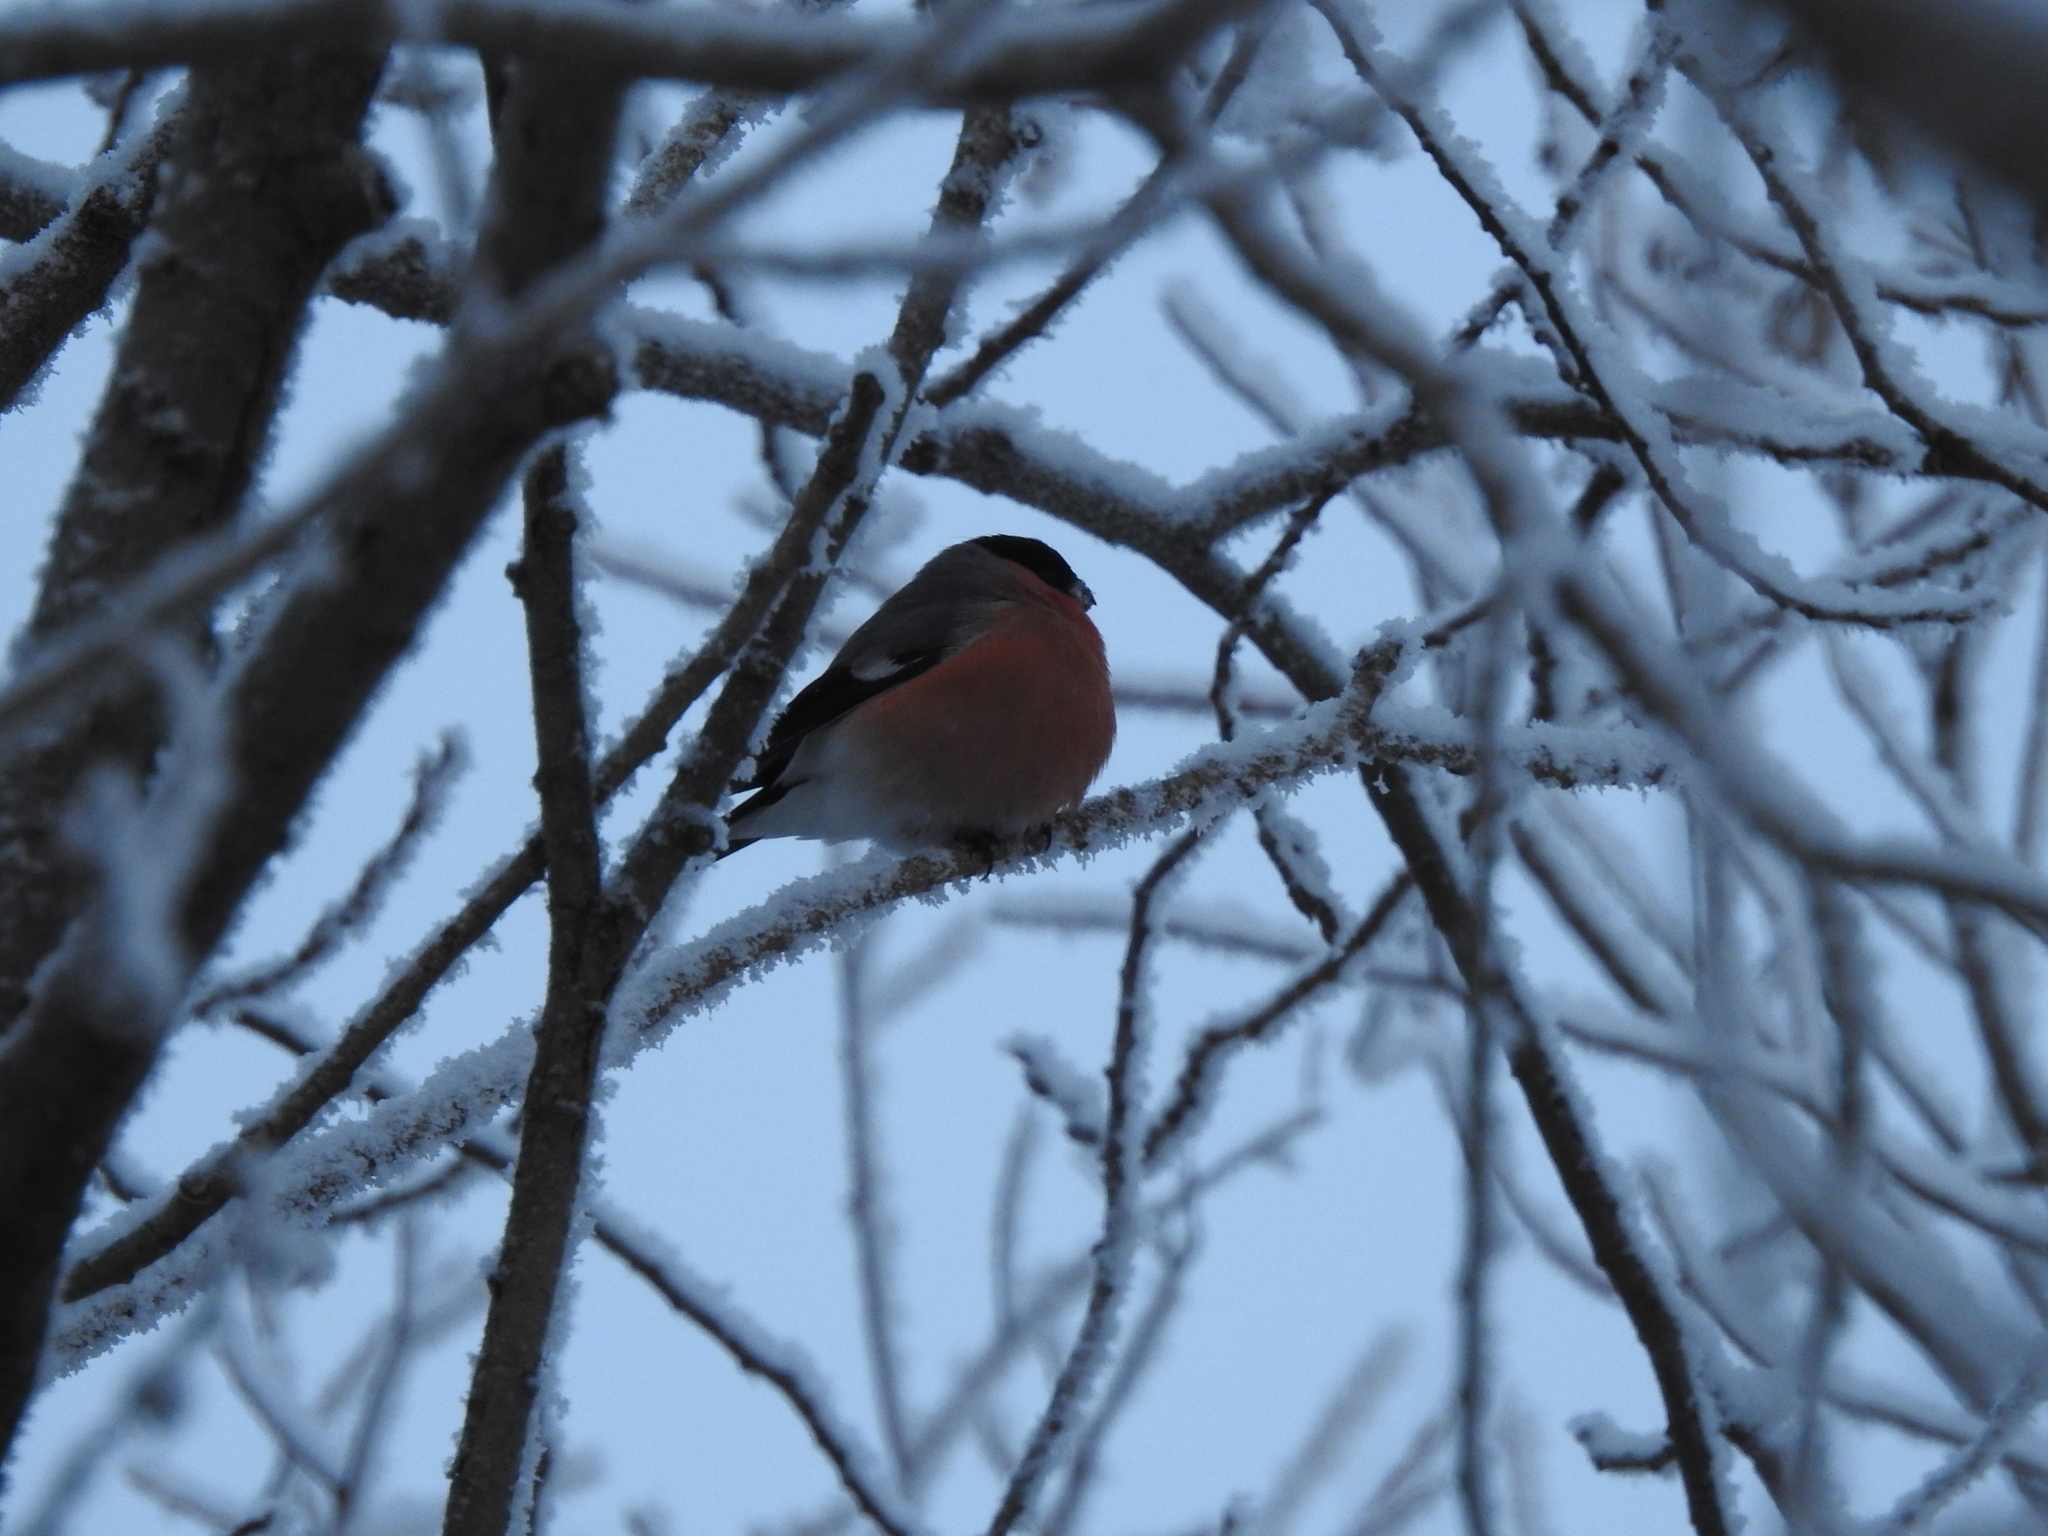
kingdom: Animalia
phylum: Chordata
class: Aves
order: Passeriformes
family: Fringillidae
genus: Pyrrhula
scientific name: Pyrrhula pyrrhula
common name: Eurasian bullfinch
